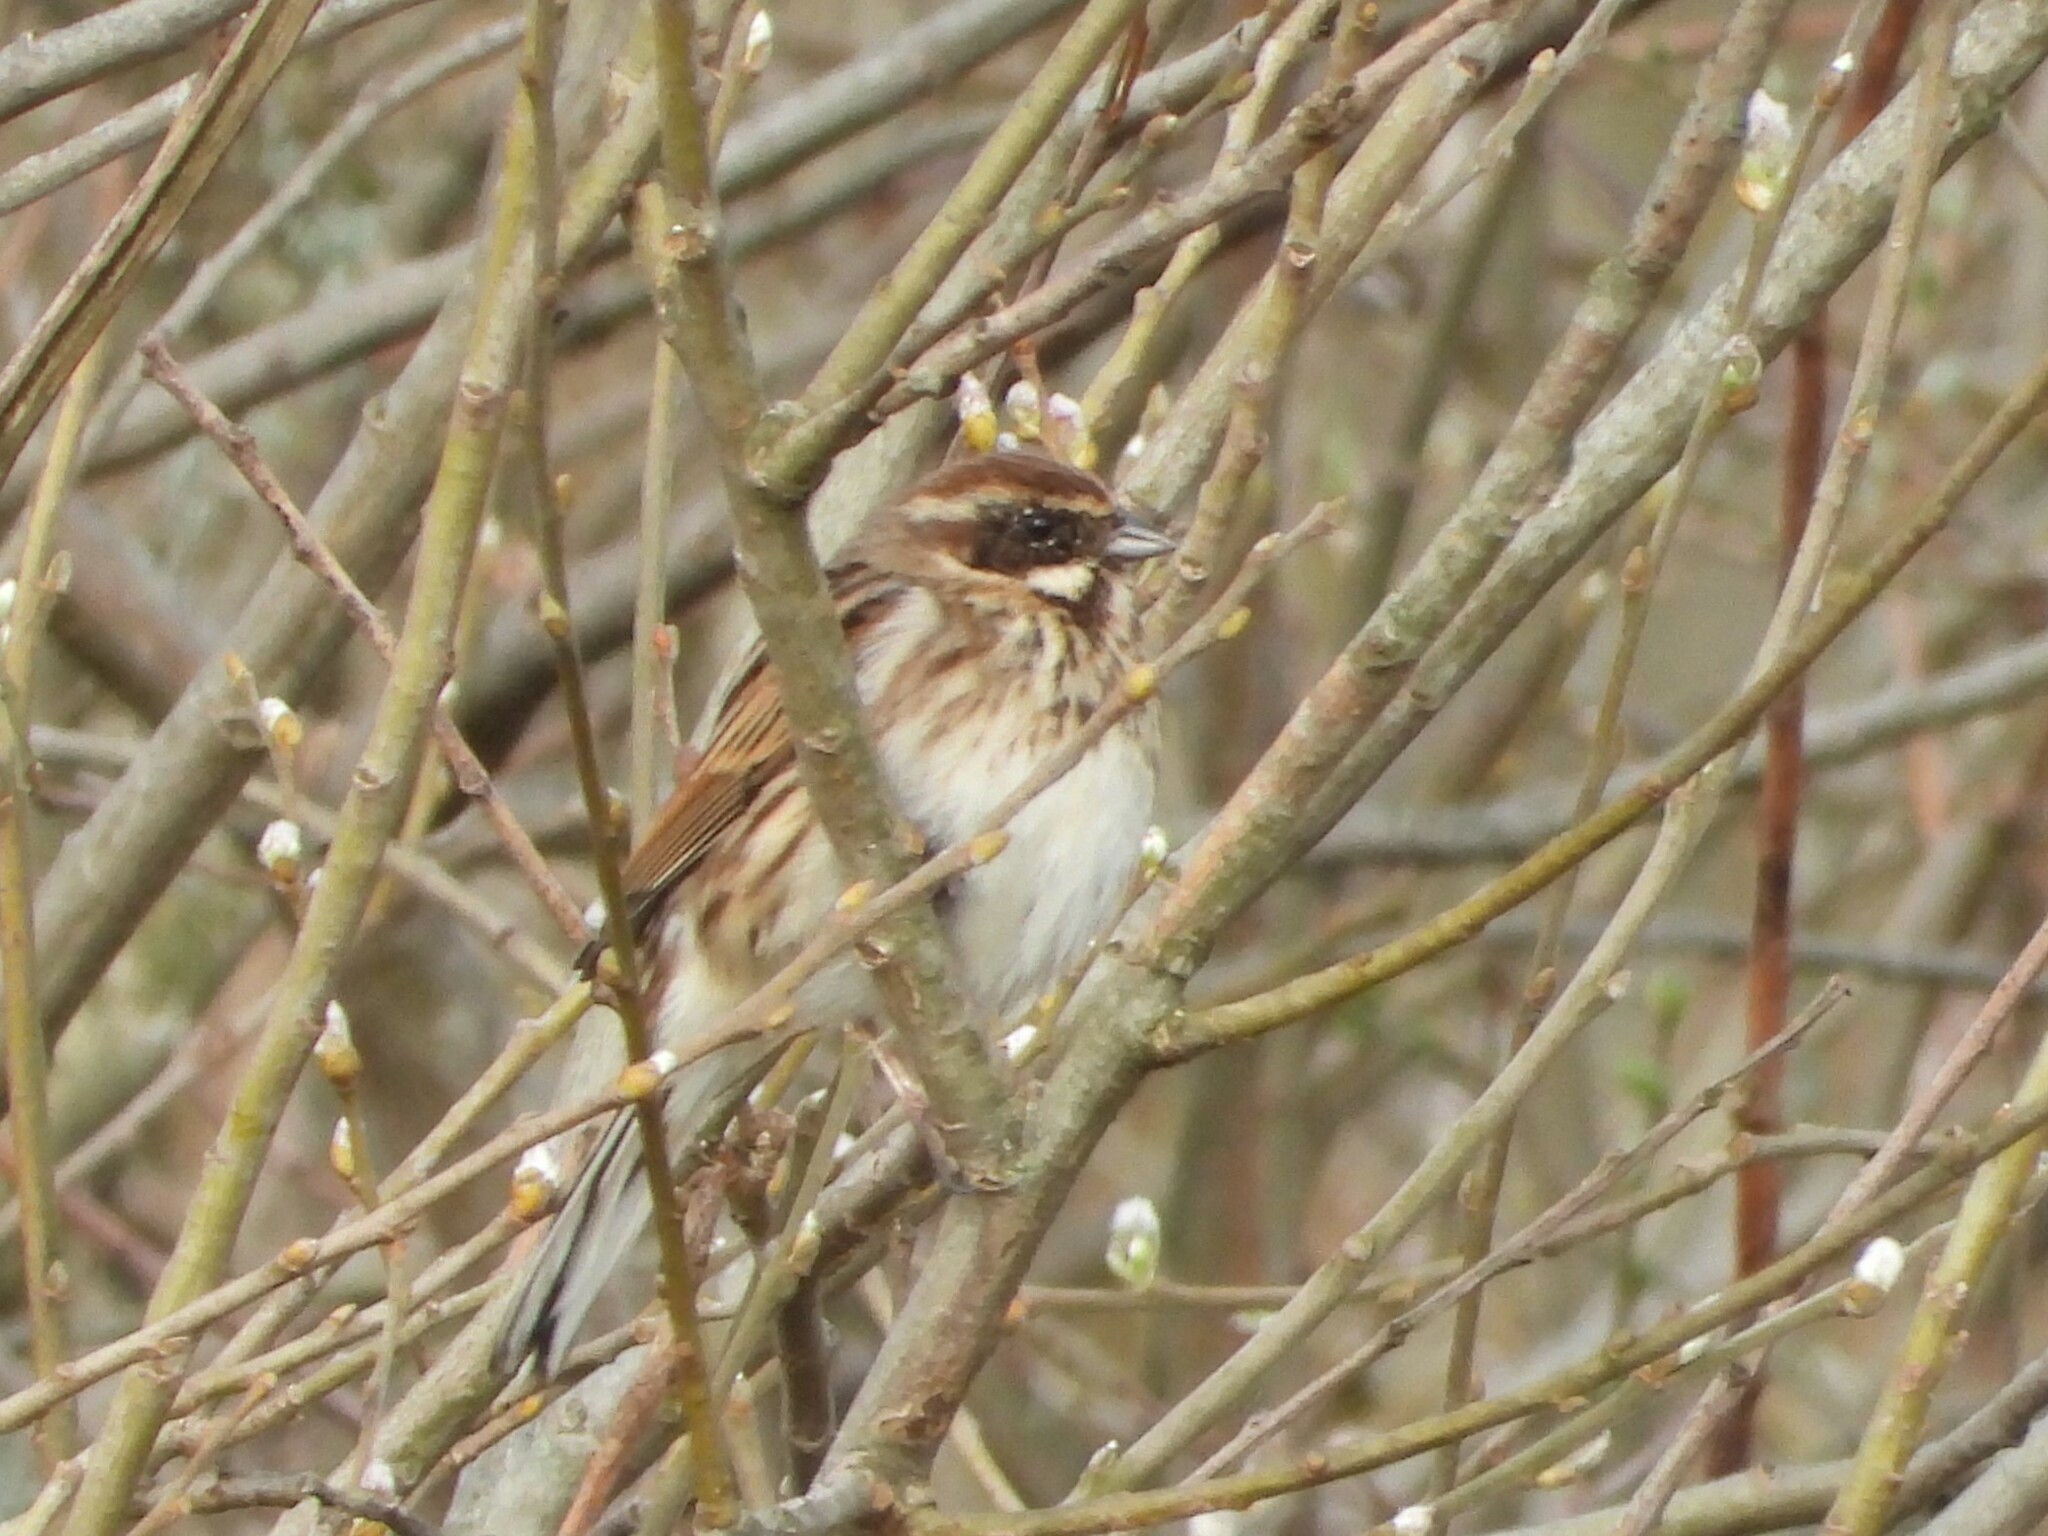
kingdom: Animalia
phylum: Chordata
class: Aves
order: Passeriformes
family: Emberizidae
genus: Emberiza
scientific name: Emberiza schoeniclus
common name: Reed bunting
